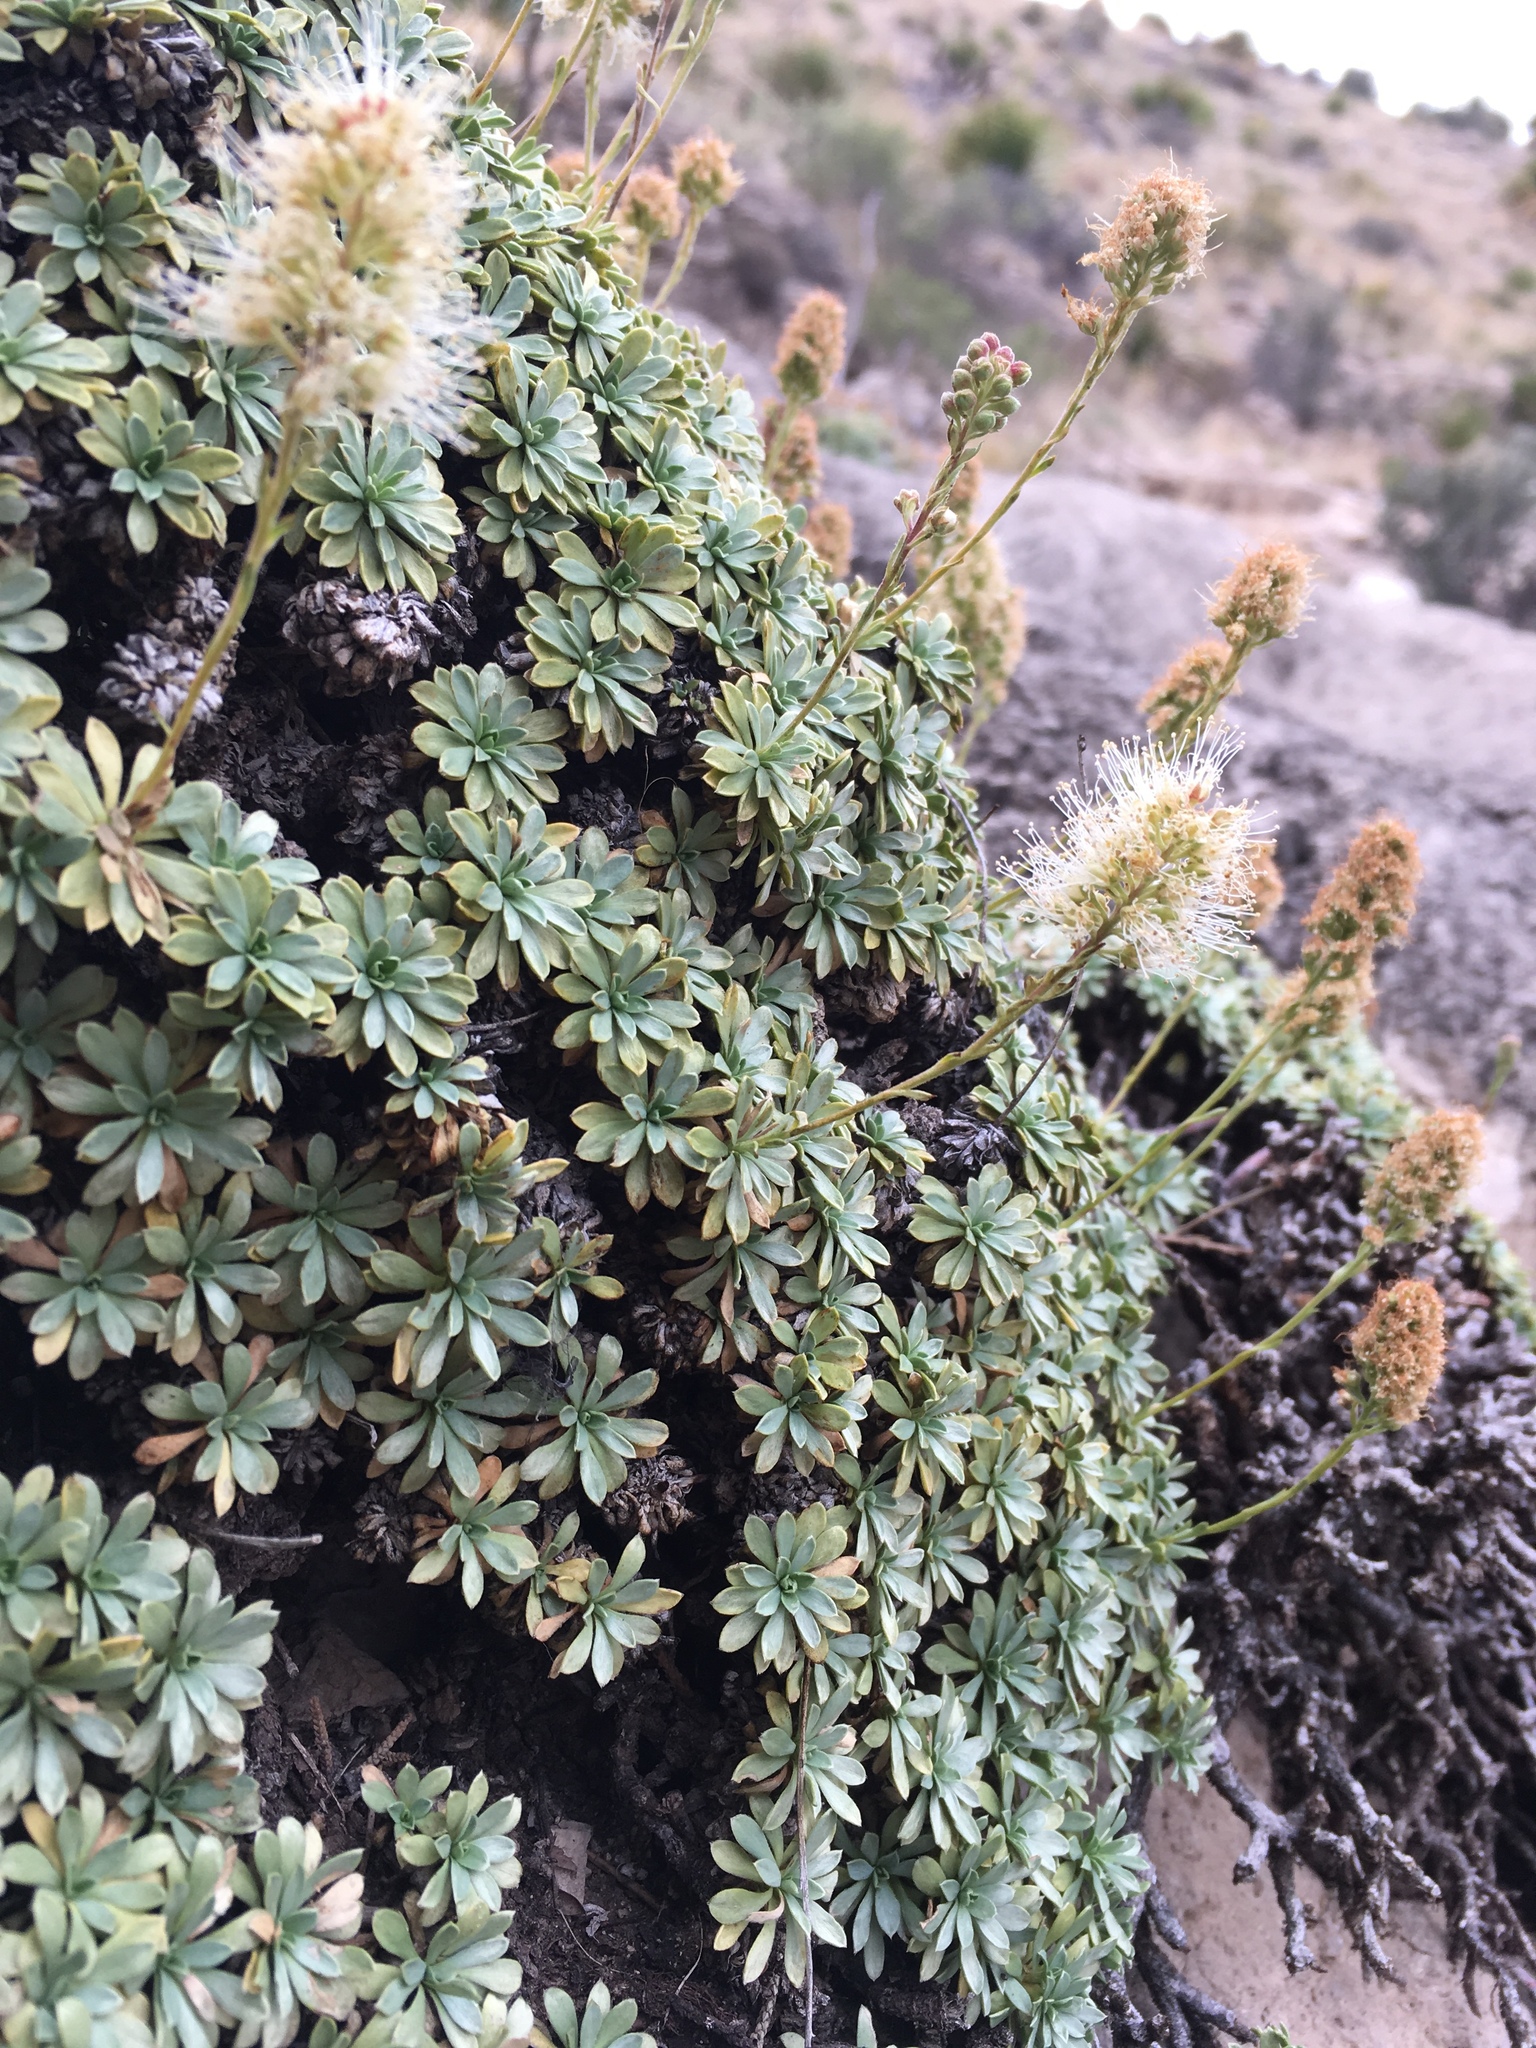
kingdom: Plantae
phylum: Tracheophyta
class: Magnoliopsida
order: Rosales
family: Rosaceae
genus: Petrophytum
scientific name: Petrophytum caespitosum
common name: Mat rockspirea
